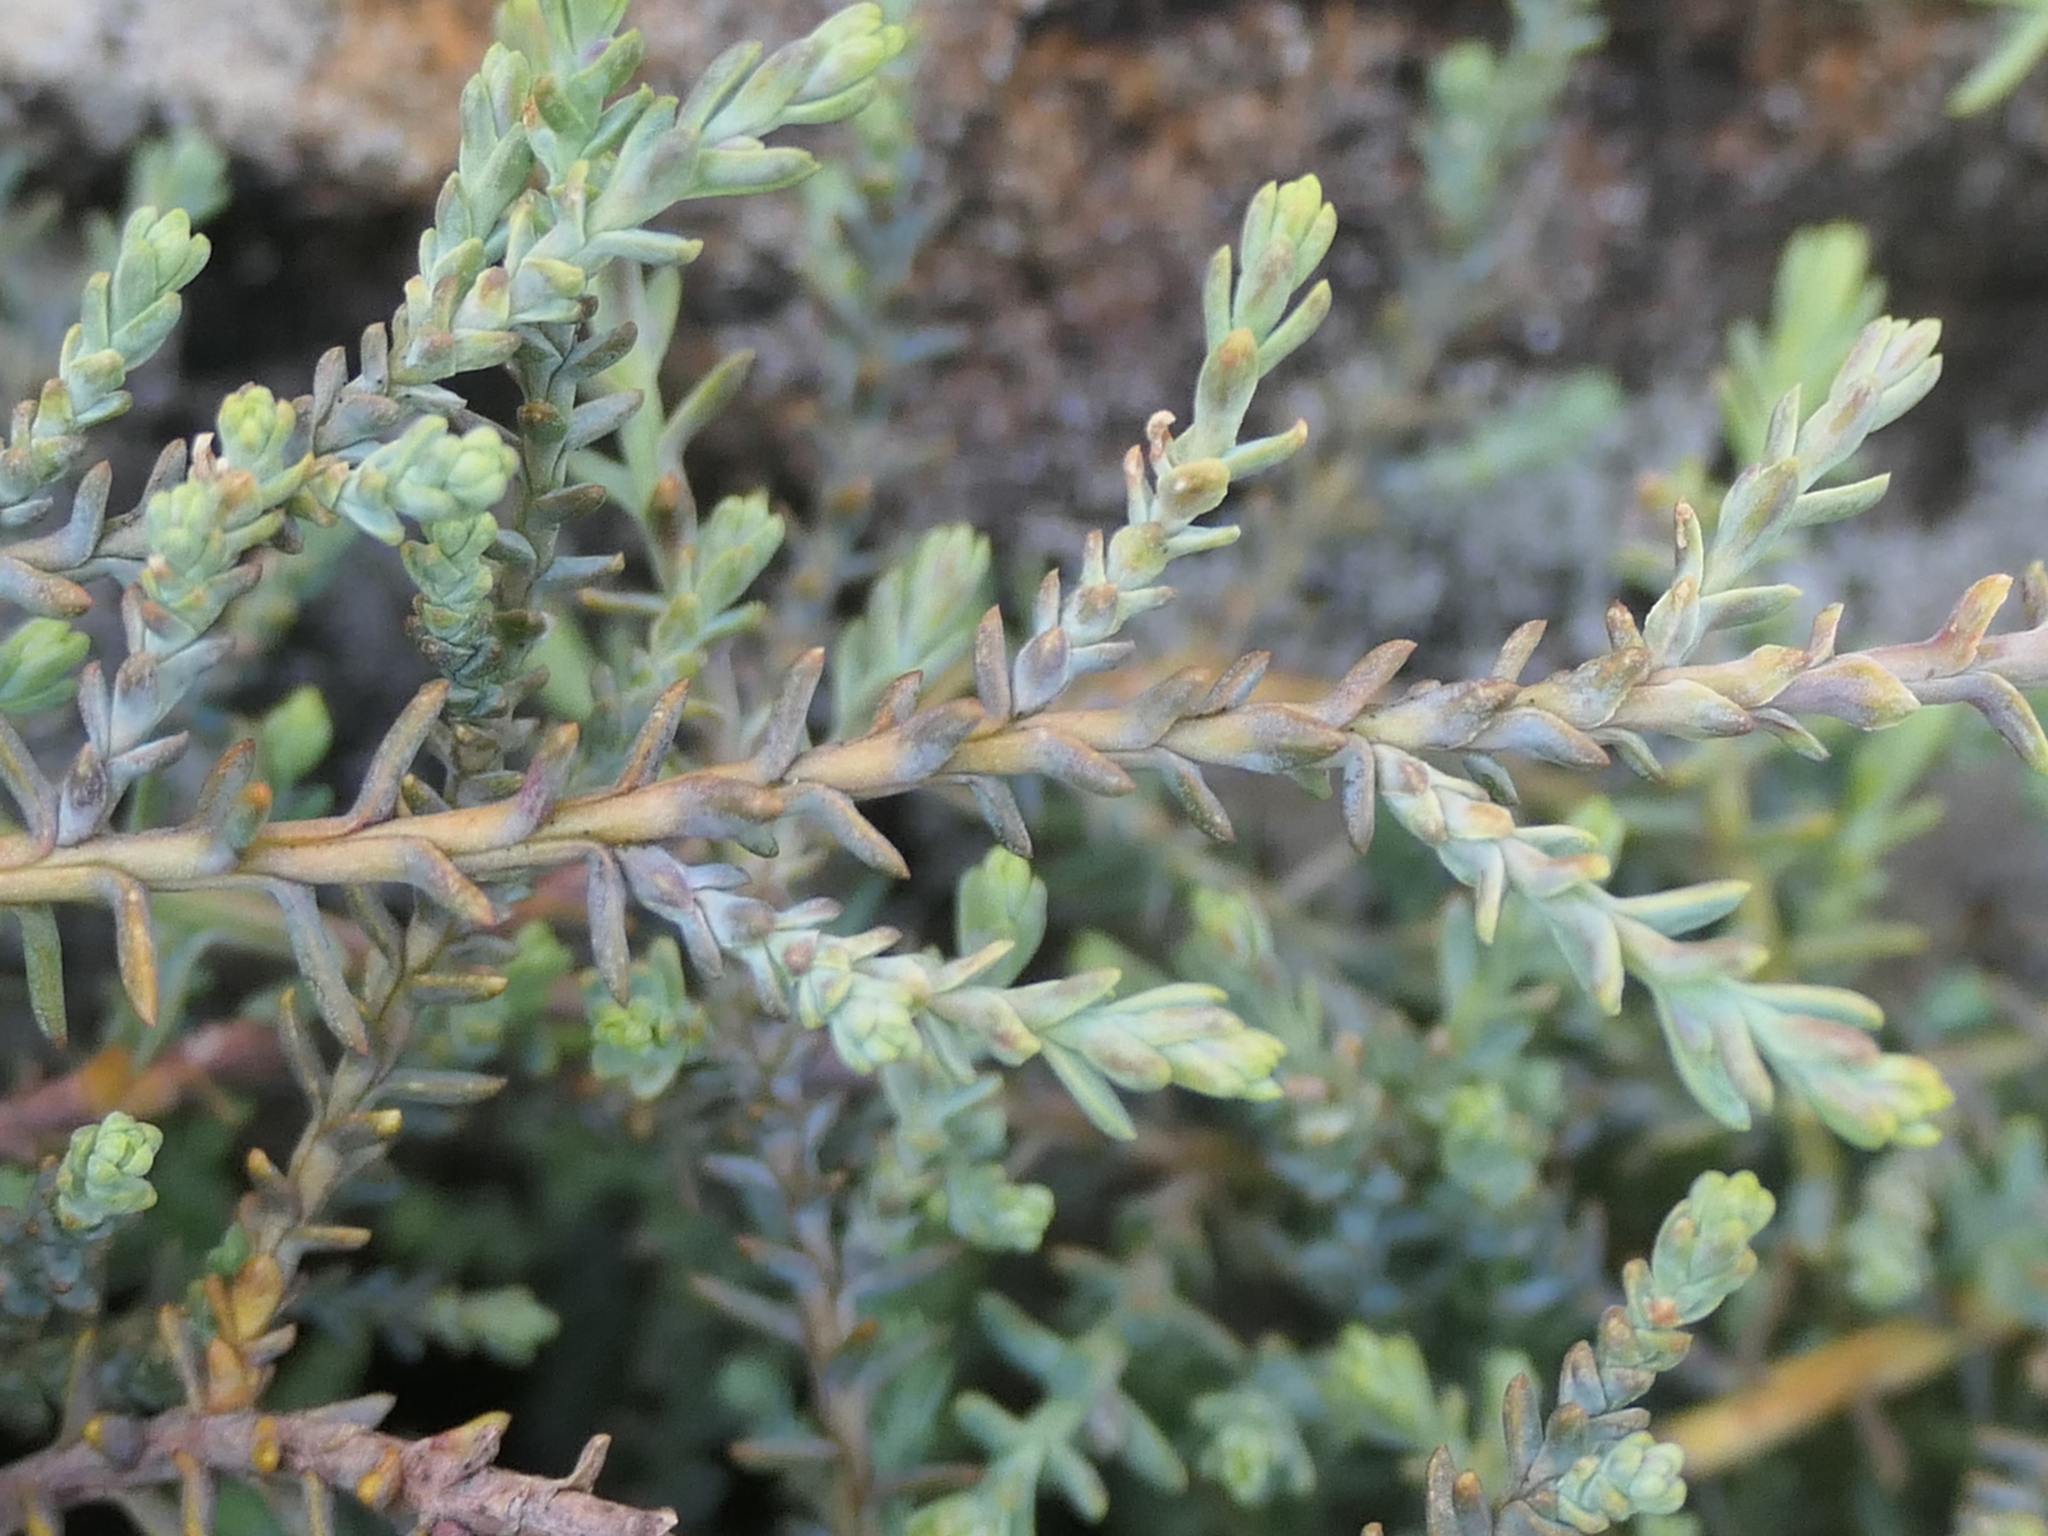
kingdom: Plantae
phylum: Tracheophyta
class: Pinopsida
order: Pinales
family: Podocarpaceae
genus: Lepidothamnus
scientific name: Lepidothamnus laxifolius
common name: Pygmy pine
